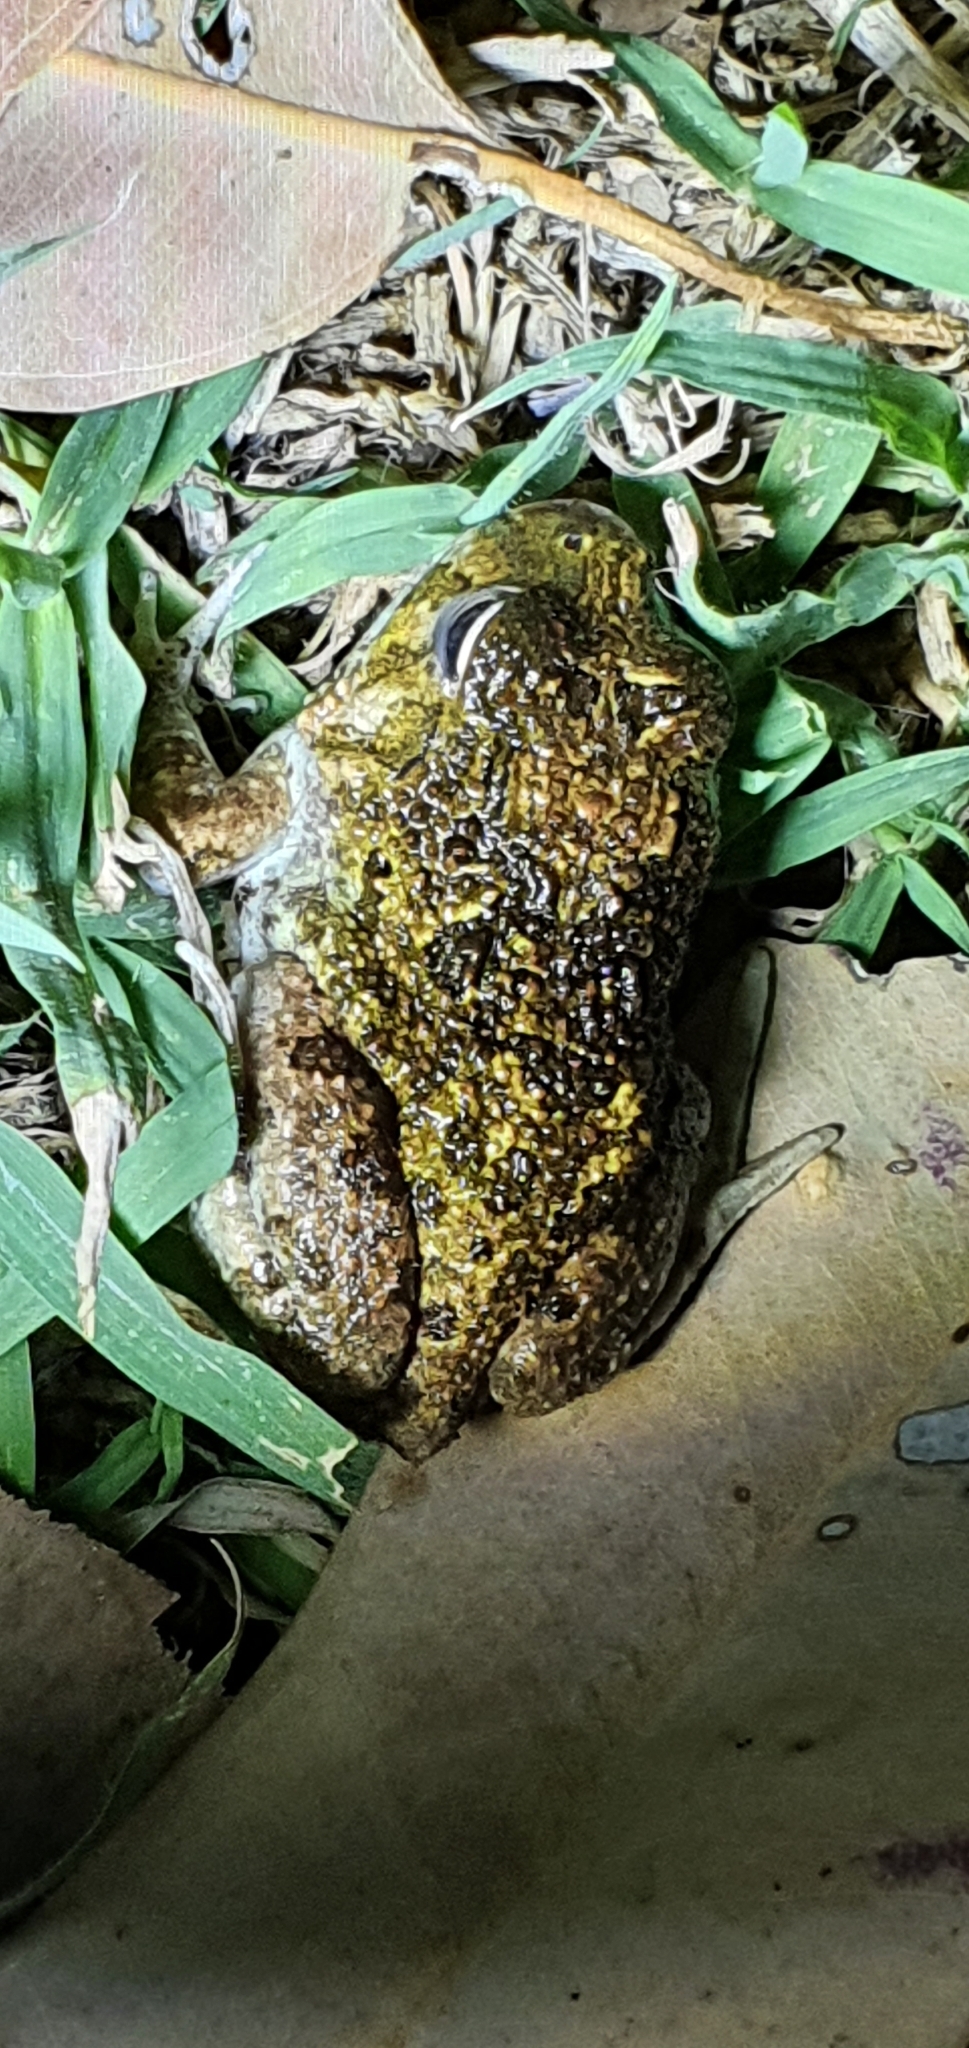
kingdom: Animalia
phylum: Chordata
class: Amphibia
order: Anura
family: Limnodynastidae
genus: Platyplectrum
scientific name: Platyplectrum ornatum
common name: Ornate burrowing frog
